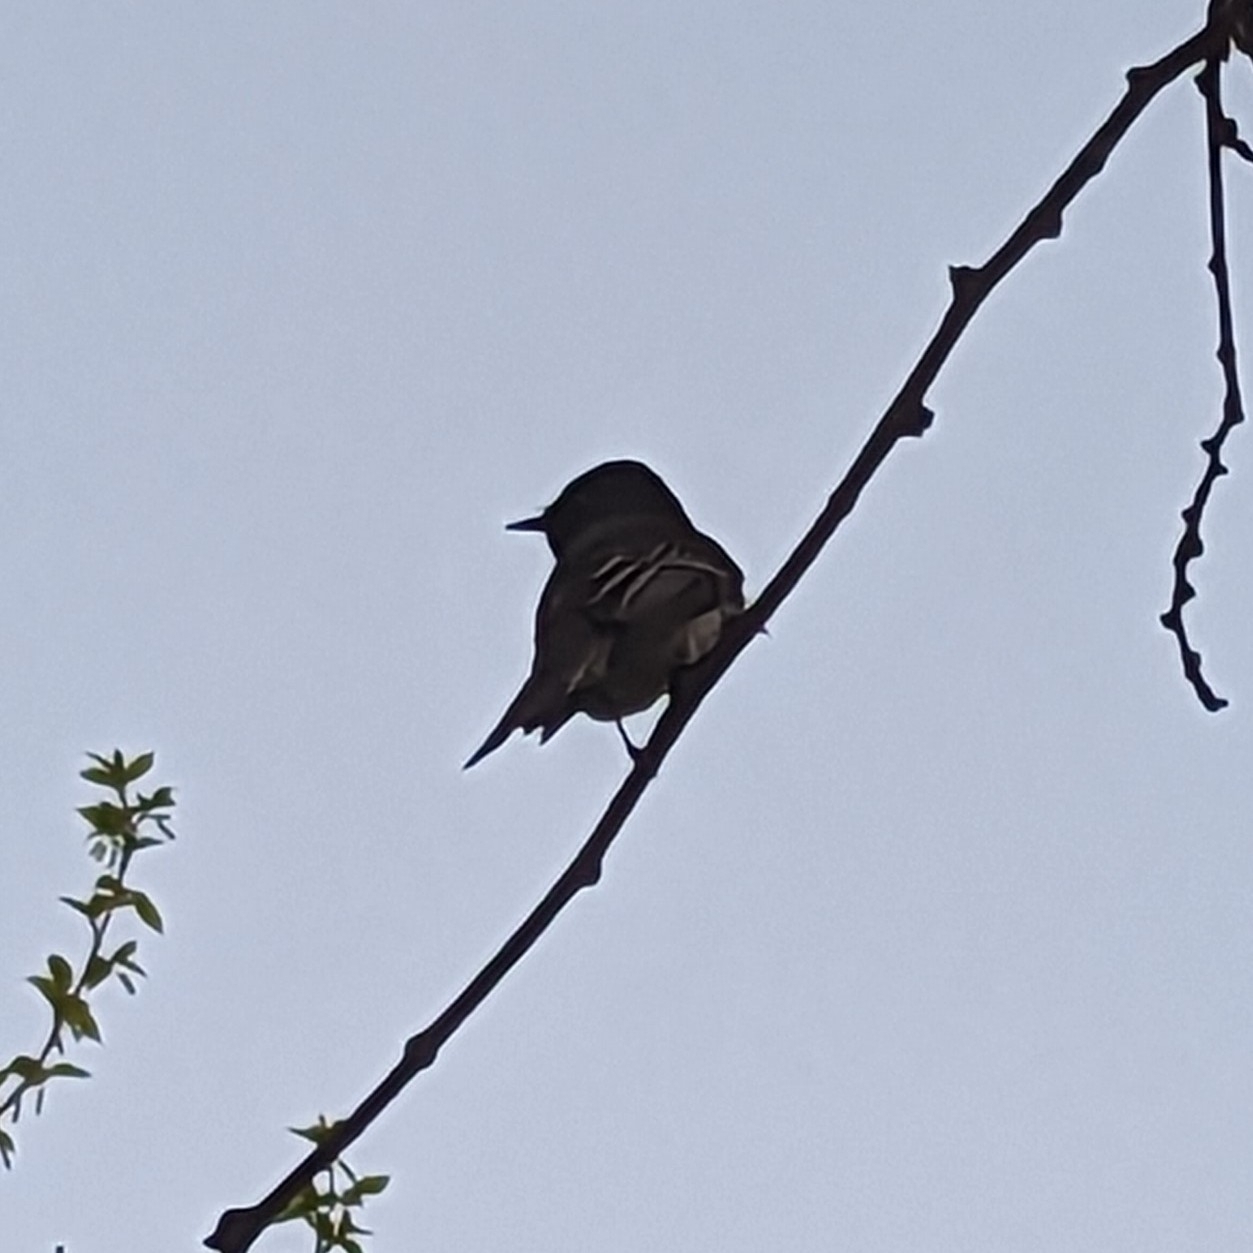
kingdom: Animalia
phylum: Chordata
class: Aves
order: Passeriformes
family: Tyrannidae
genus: Sayornis
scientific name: Sayornis nigricans
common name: Black phoebe
